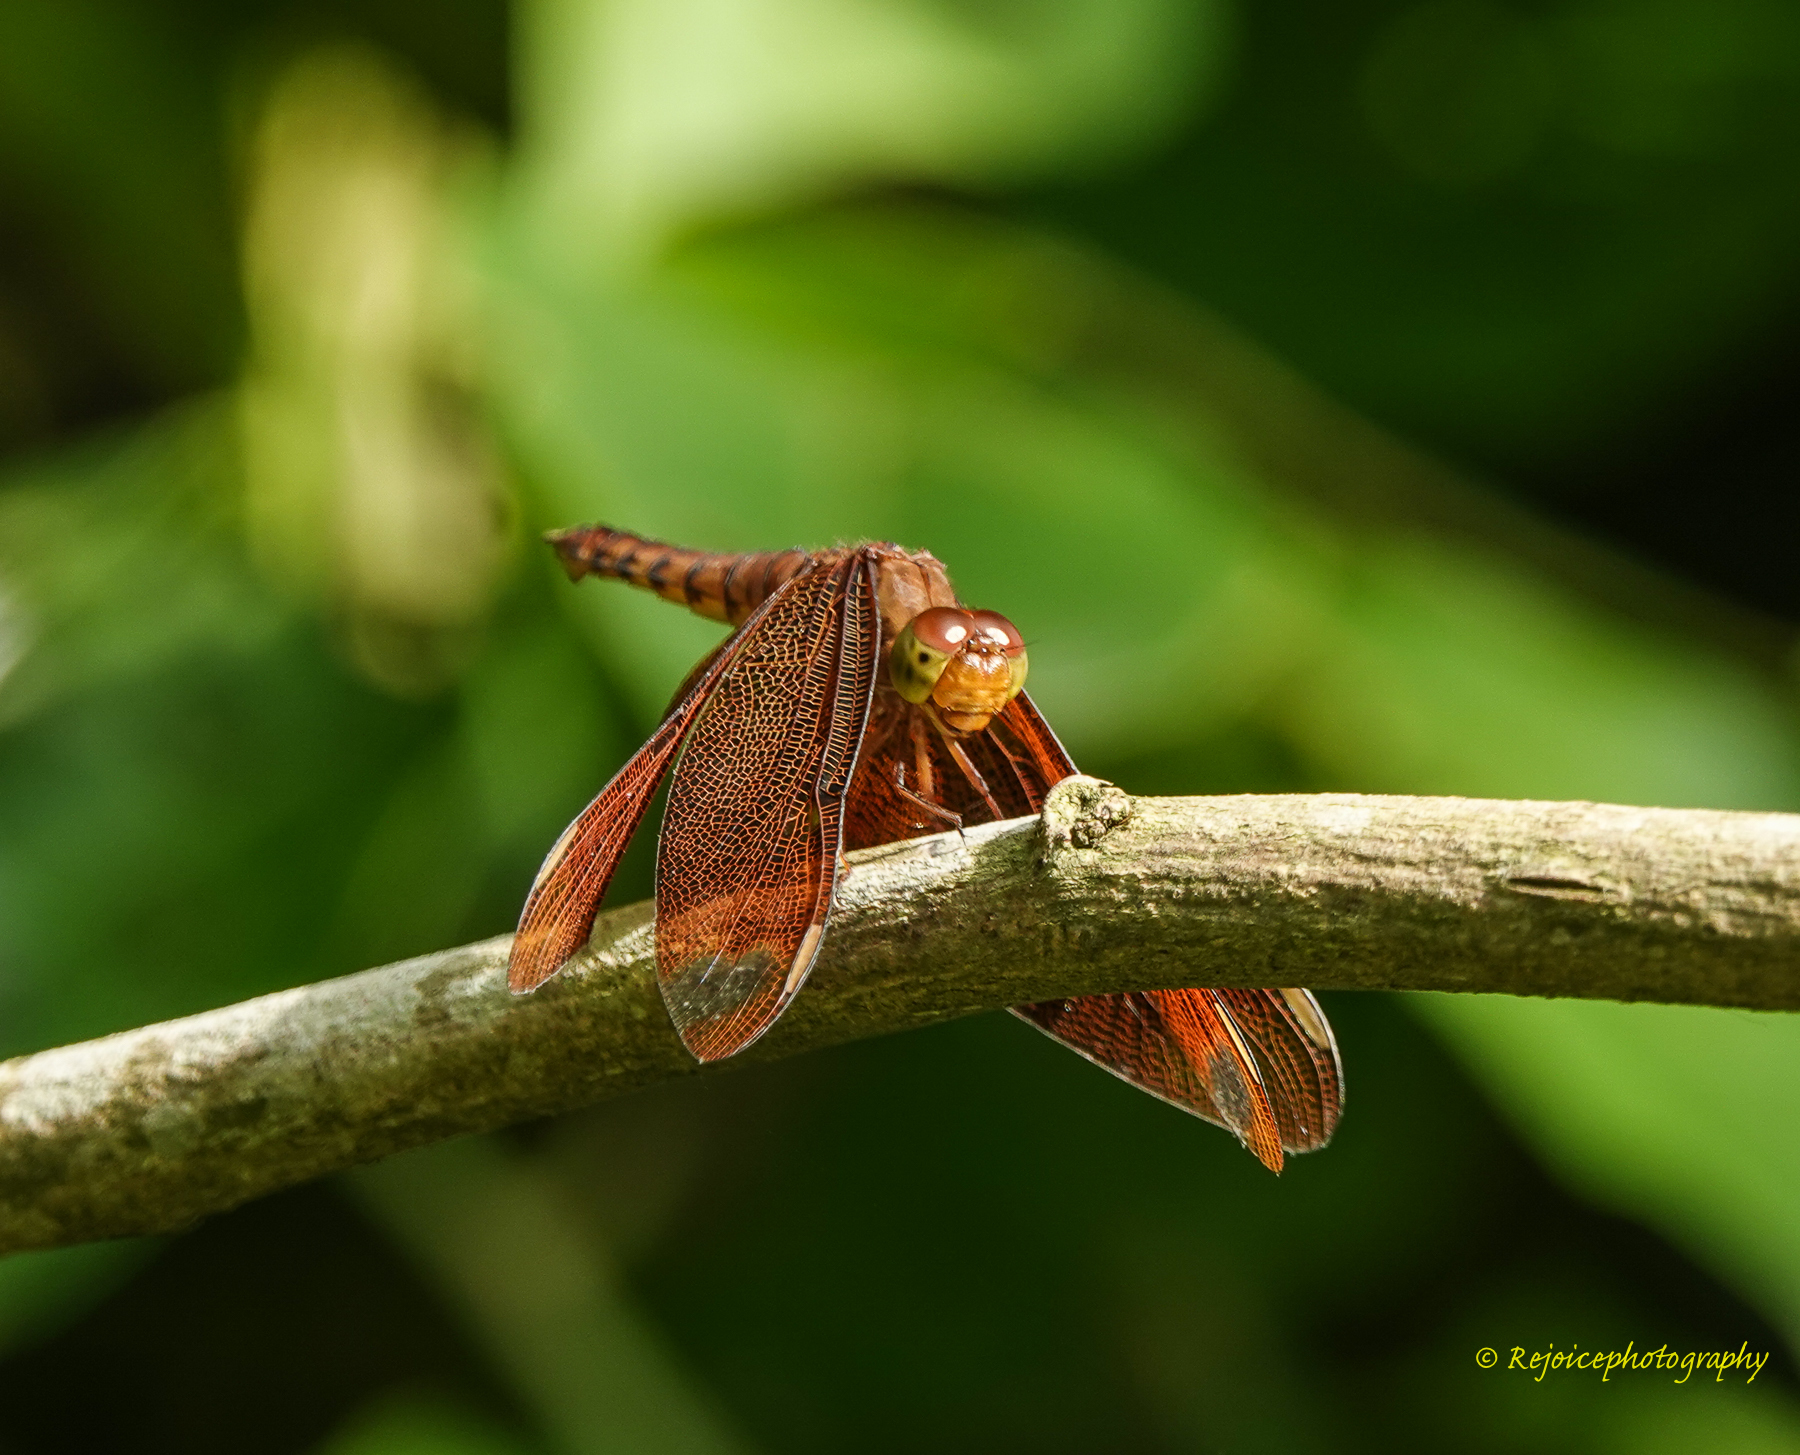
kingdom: Animalia
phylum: Arthropoda
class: Insecta
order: Odonata
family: Libellulidae
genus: Neurothemis
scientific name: Neurothemis fulvia
